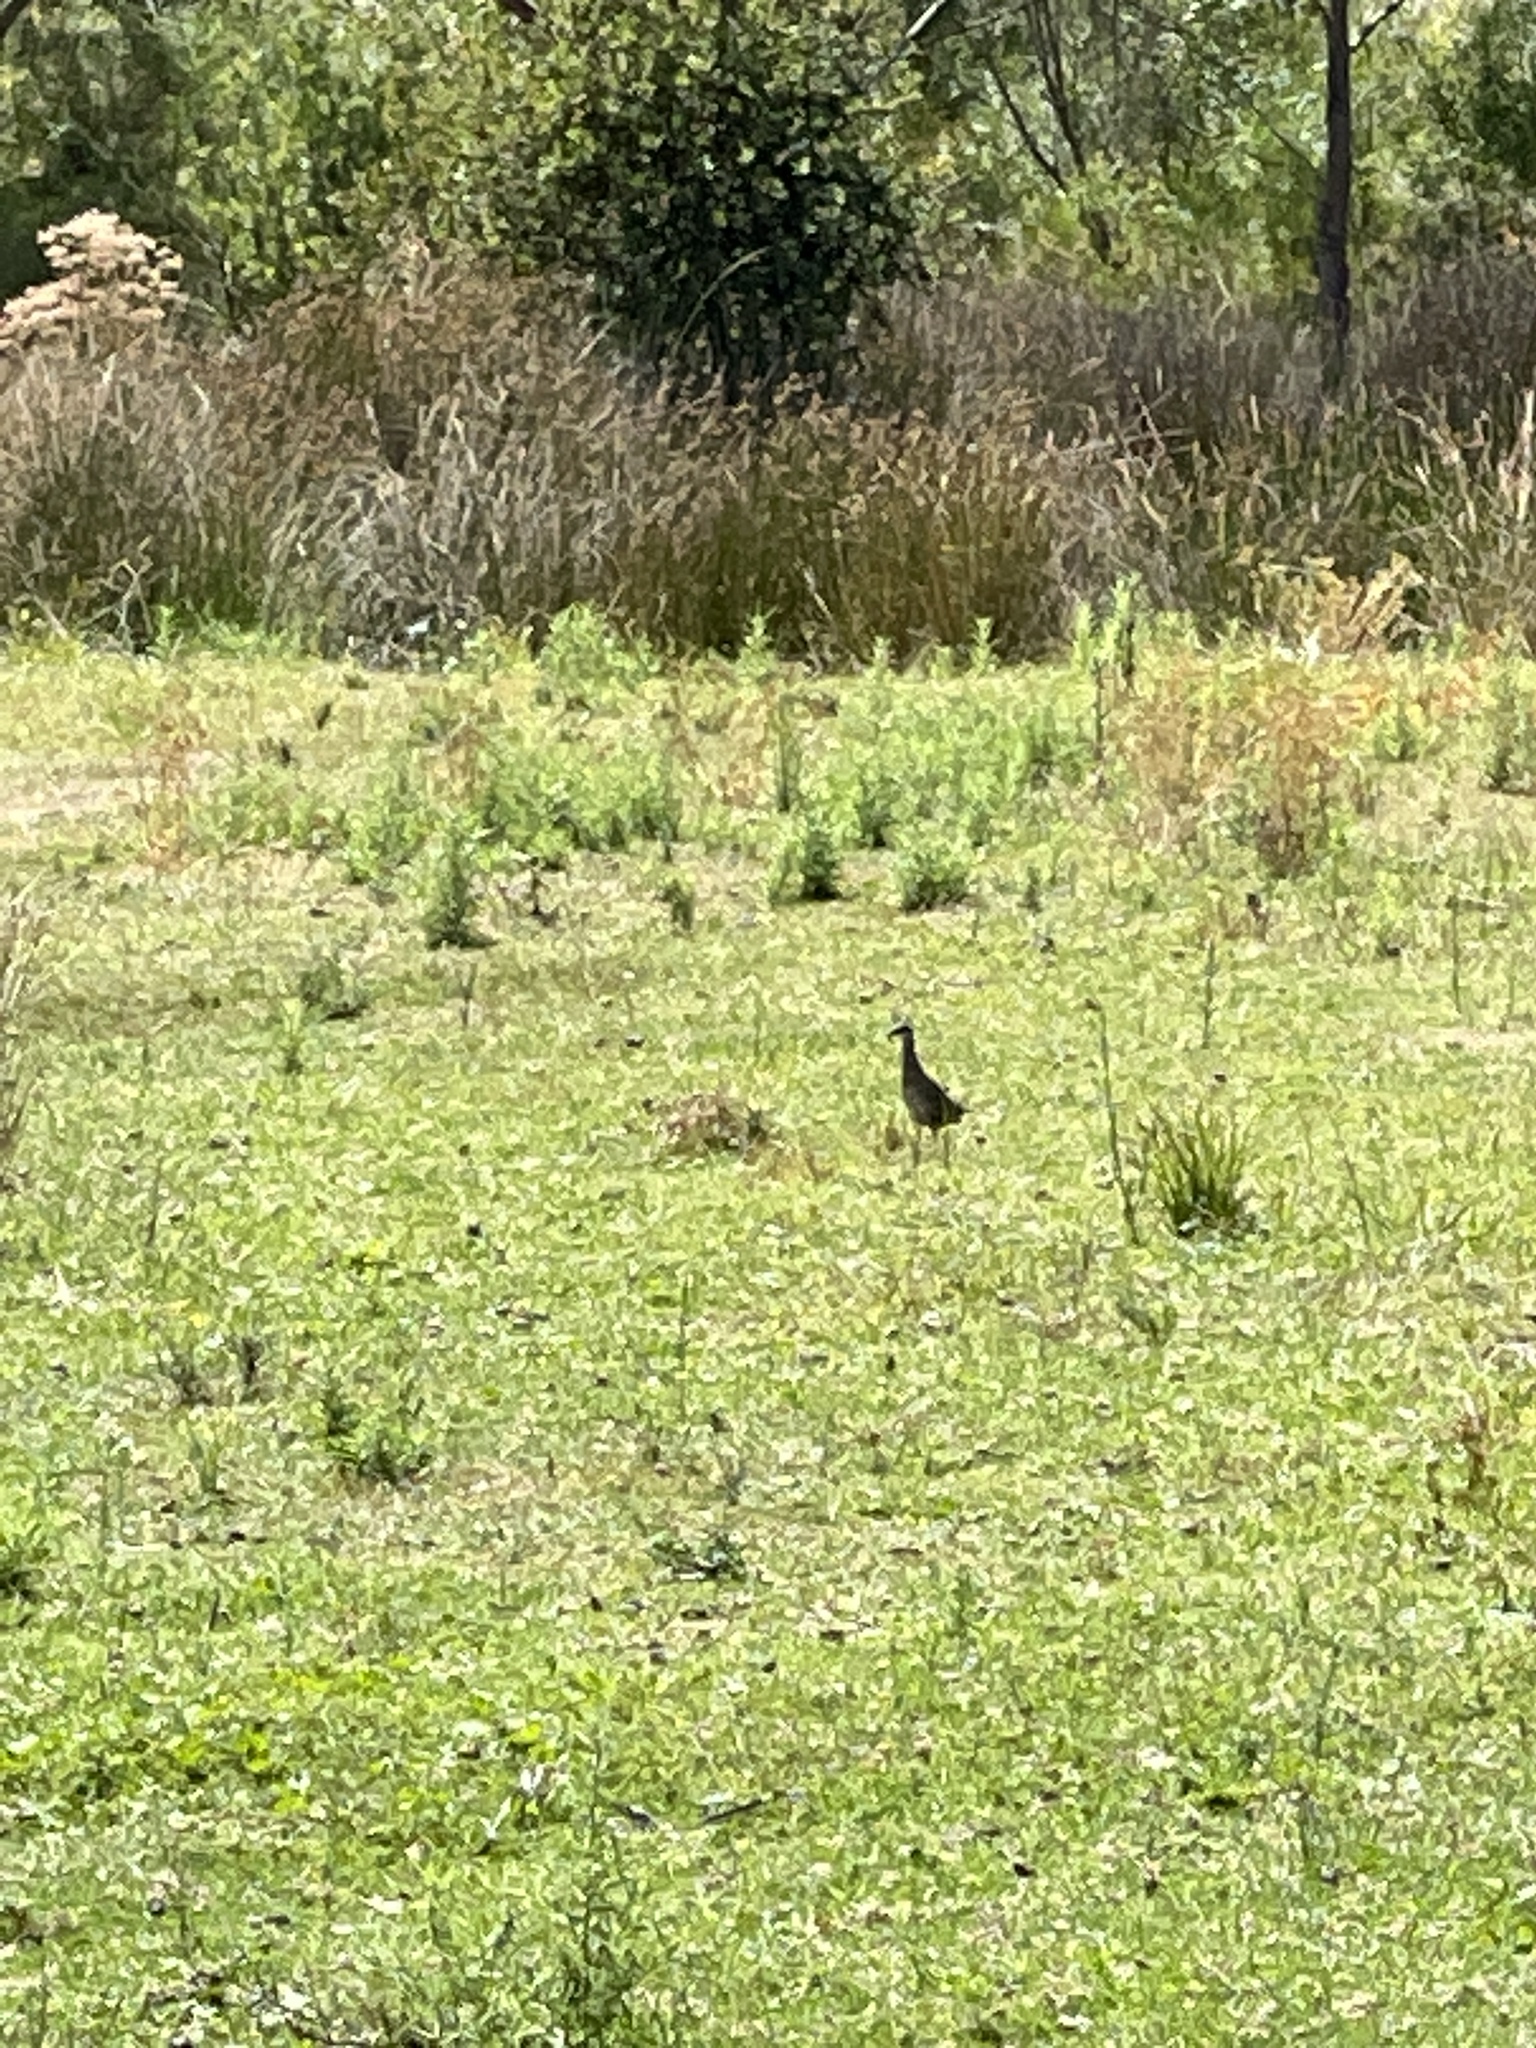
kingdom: Animalia
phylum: Chordata
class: Aves
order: Gruiformes
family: Rallidae
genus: Gallirallus
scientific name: Gallirallus philippensis
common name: Buff-banded rail
